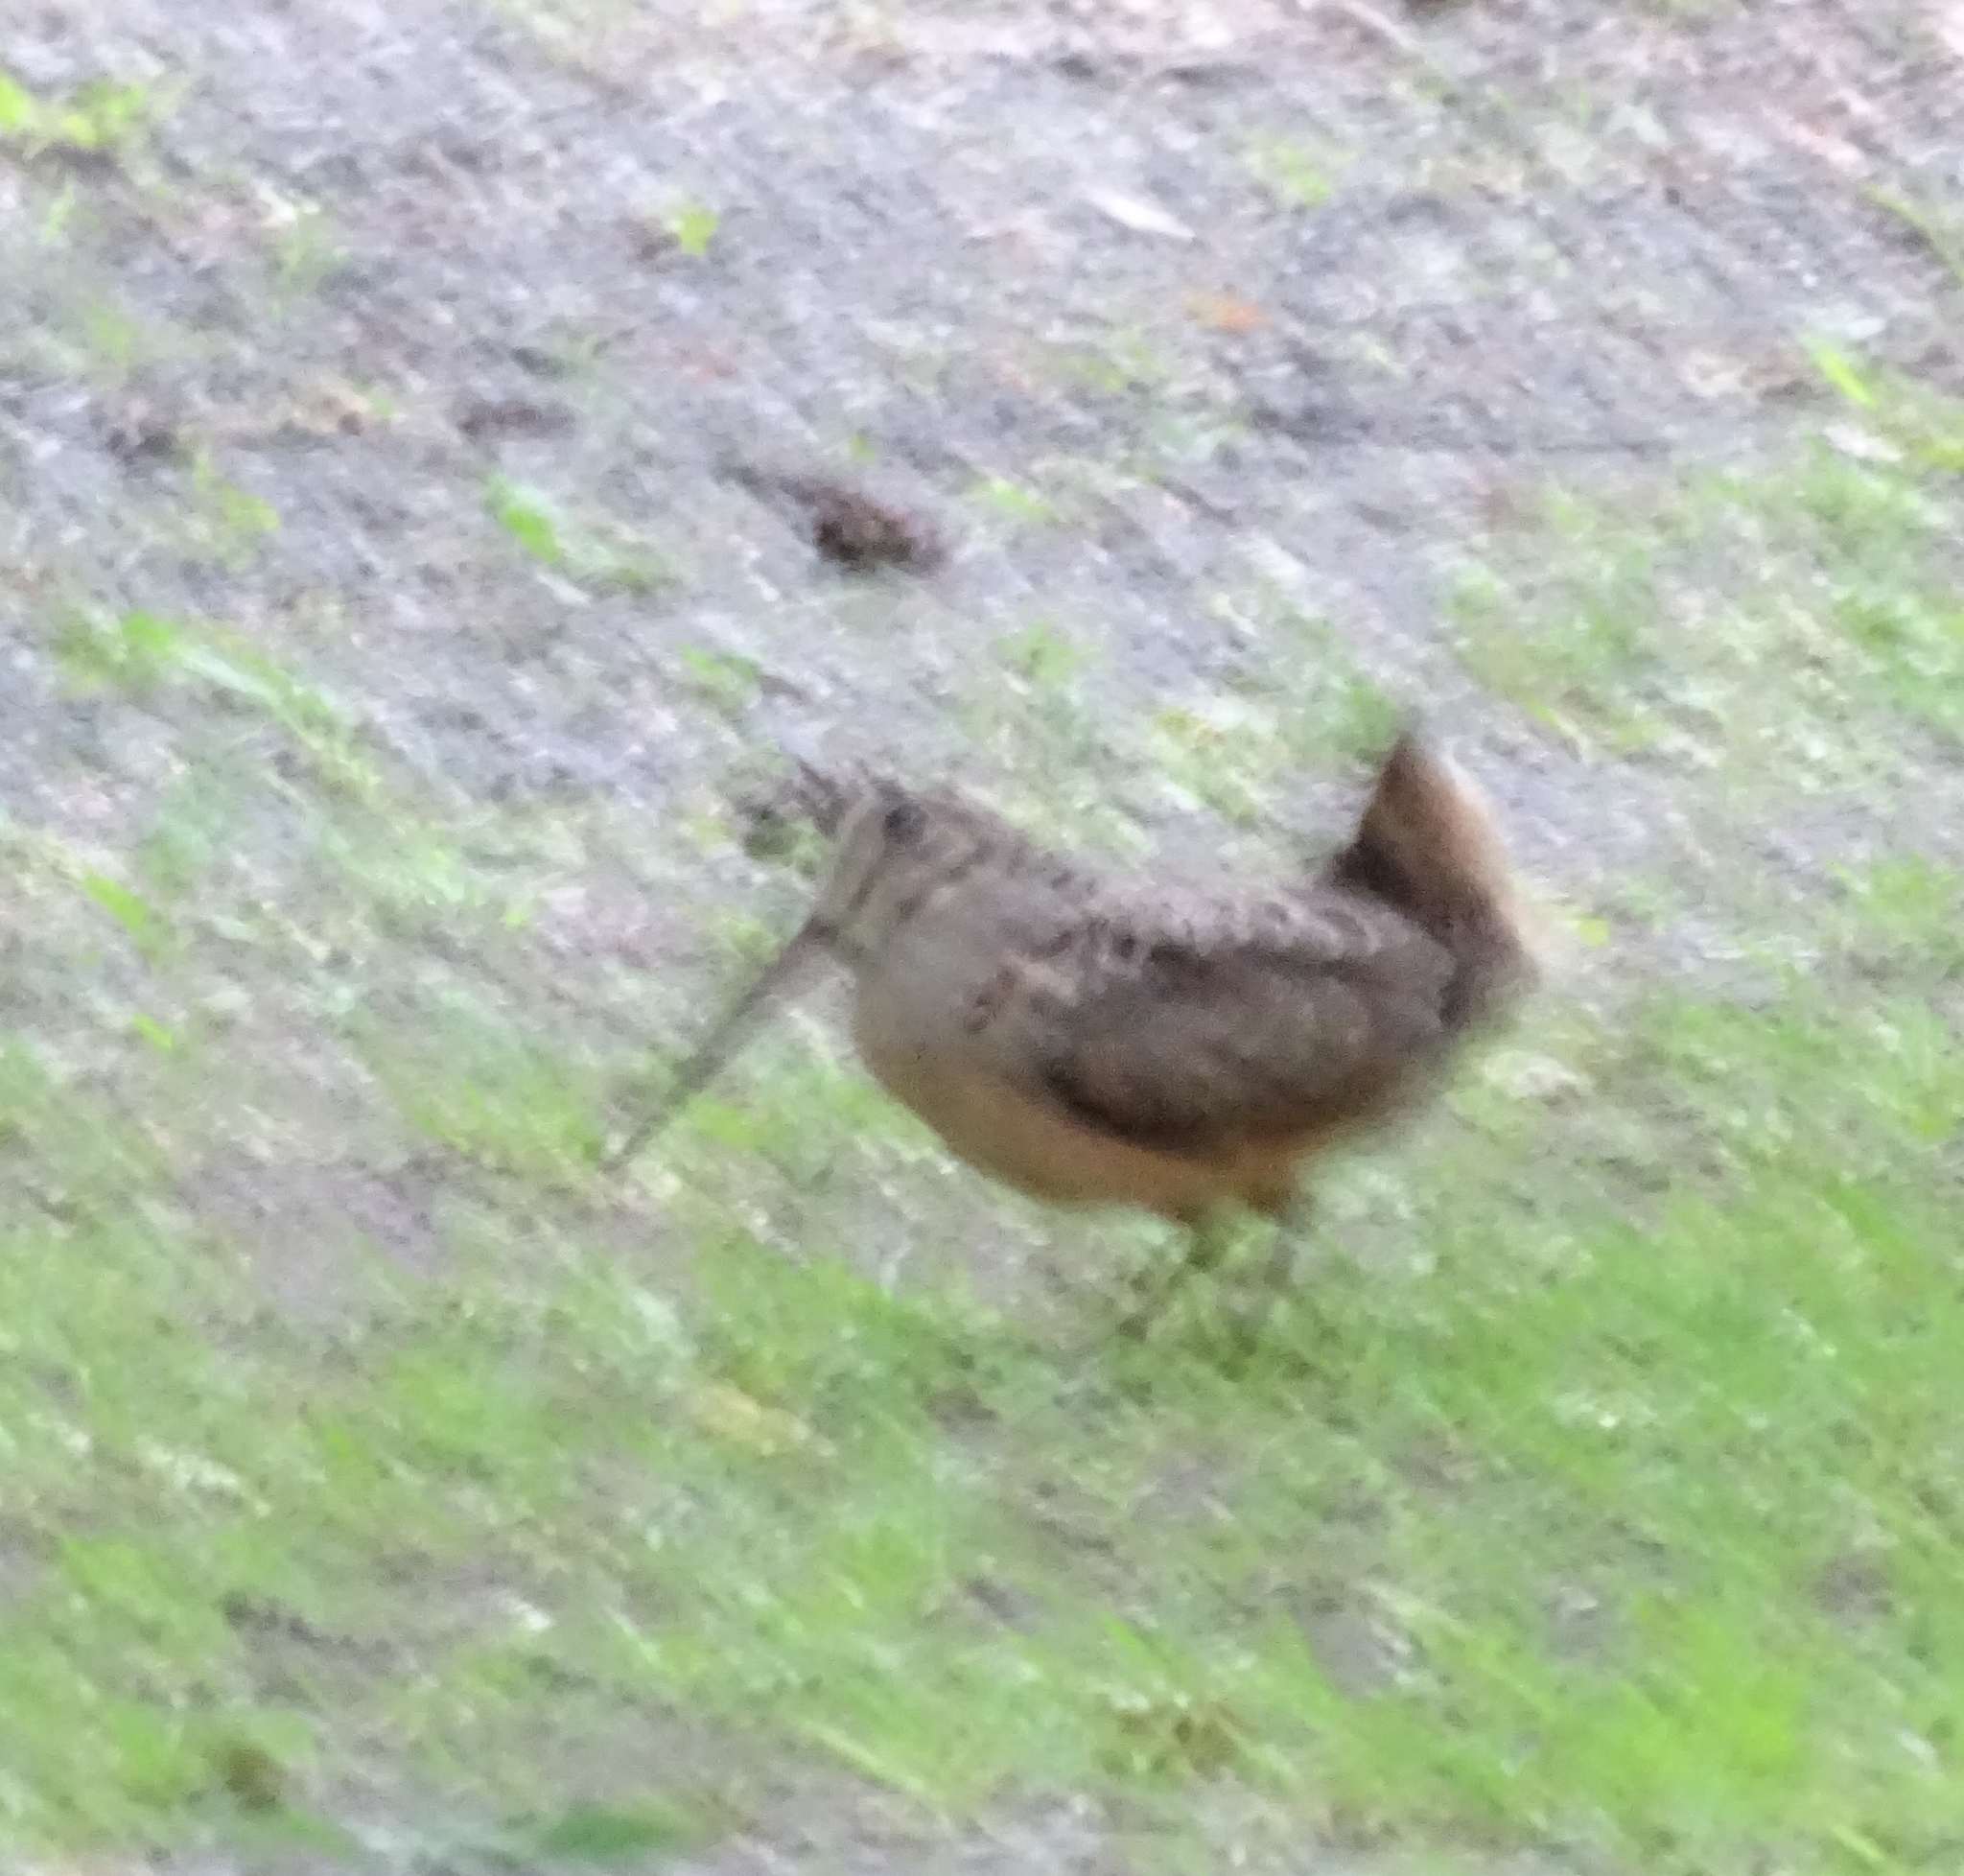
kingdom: Animalia
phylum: Chordata
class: Aves
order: Charadriiformes
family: Scolopacidae
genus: Scolopax
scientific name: Scolopax minor
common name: American woodcock
